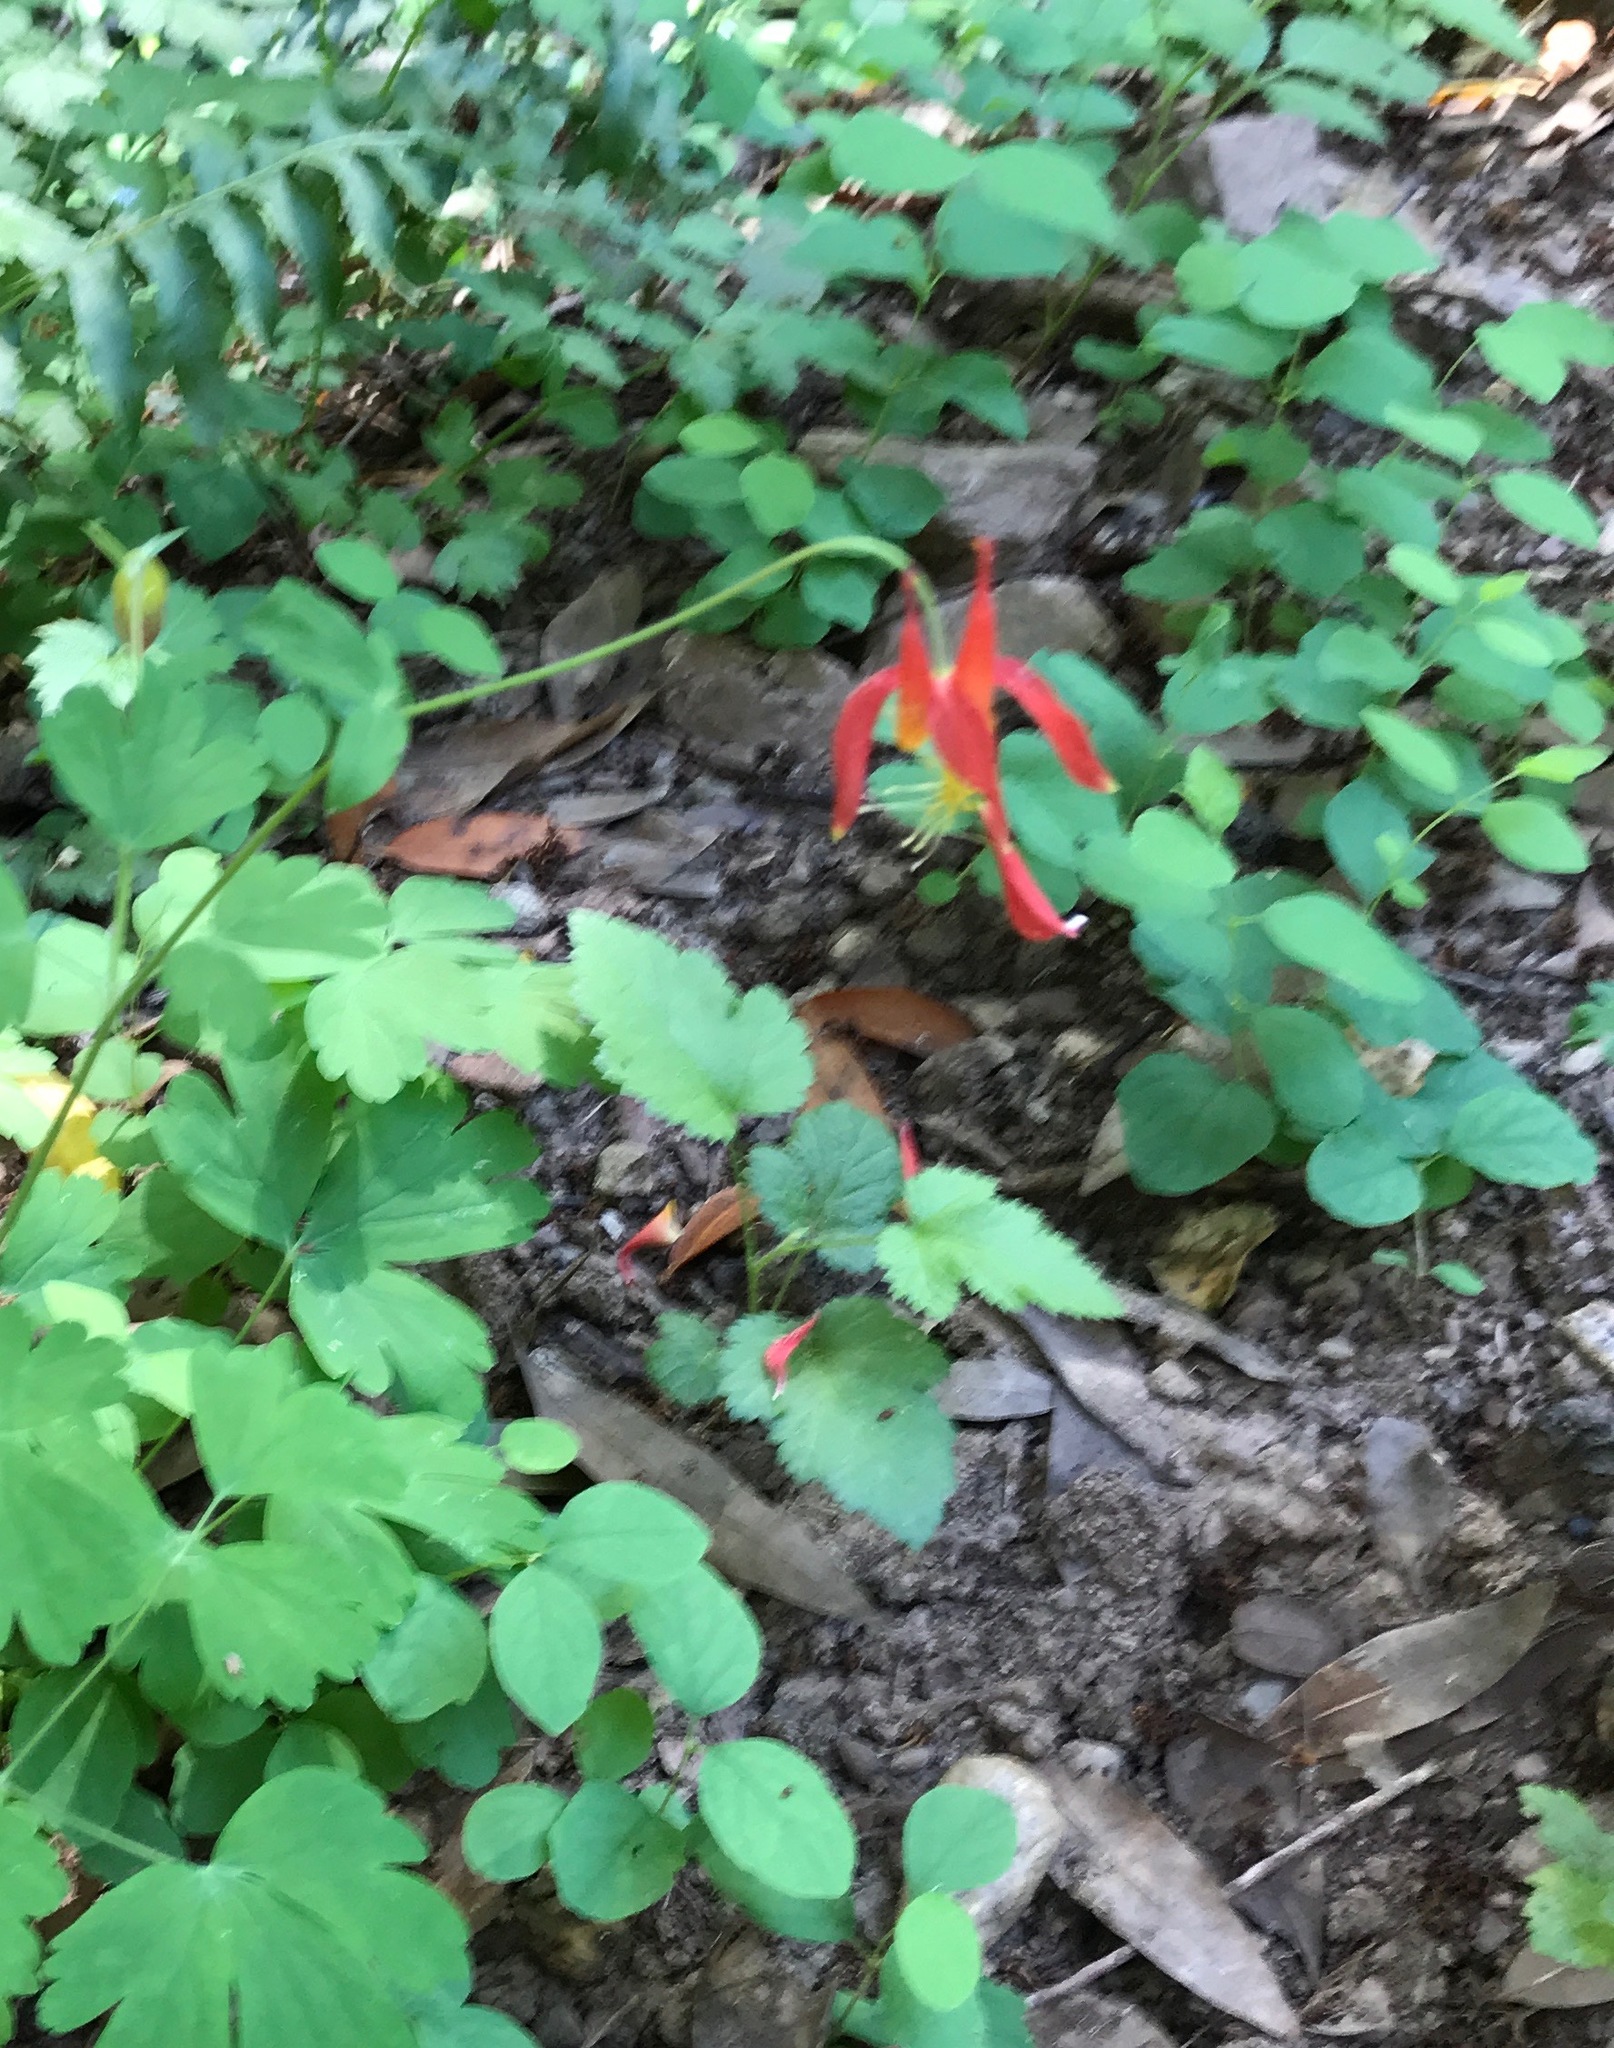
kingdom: Plantae
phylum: Tracheophyta
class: Magnoliopsida
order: Ranunculales
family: Ranunculaceae
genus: Aquilegia
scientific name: Aquilegia formosa
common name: Sitka columbine
